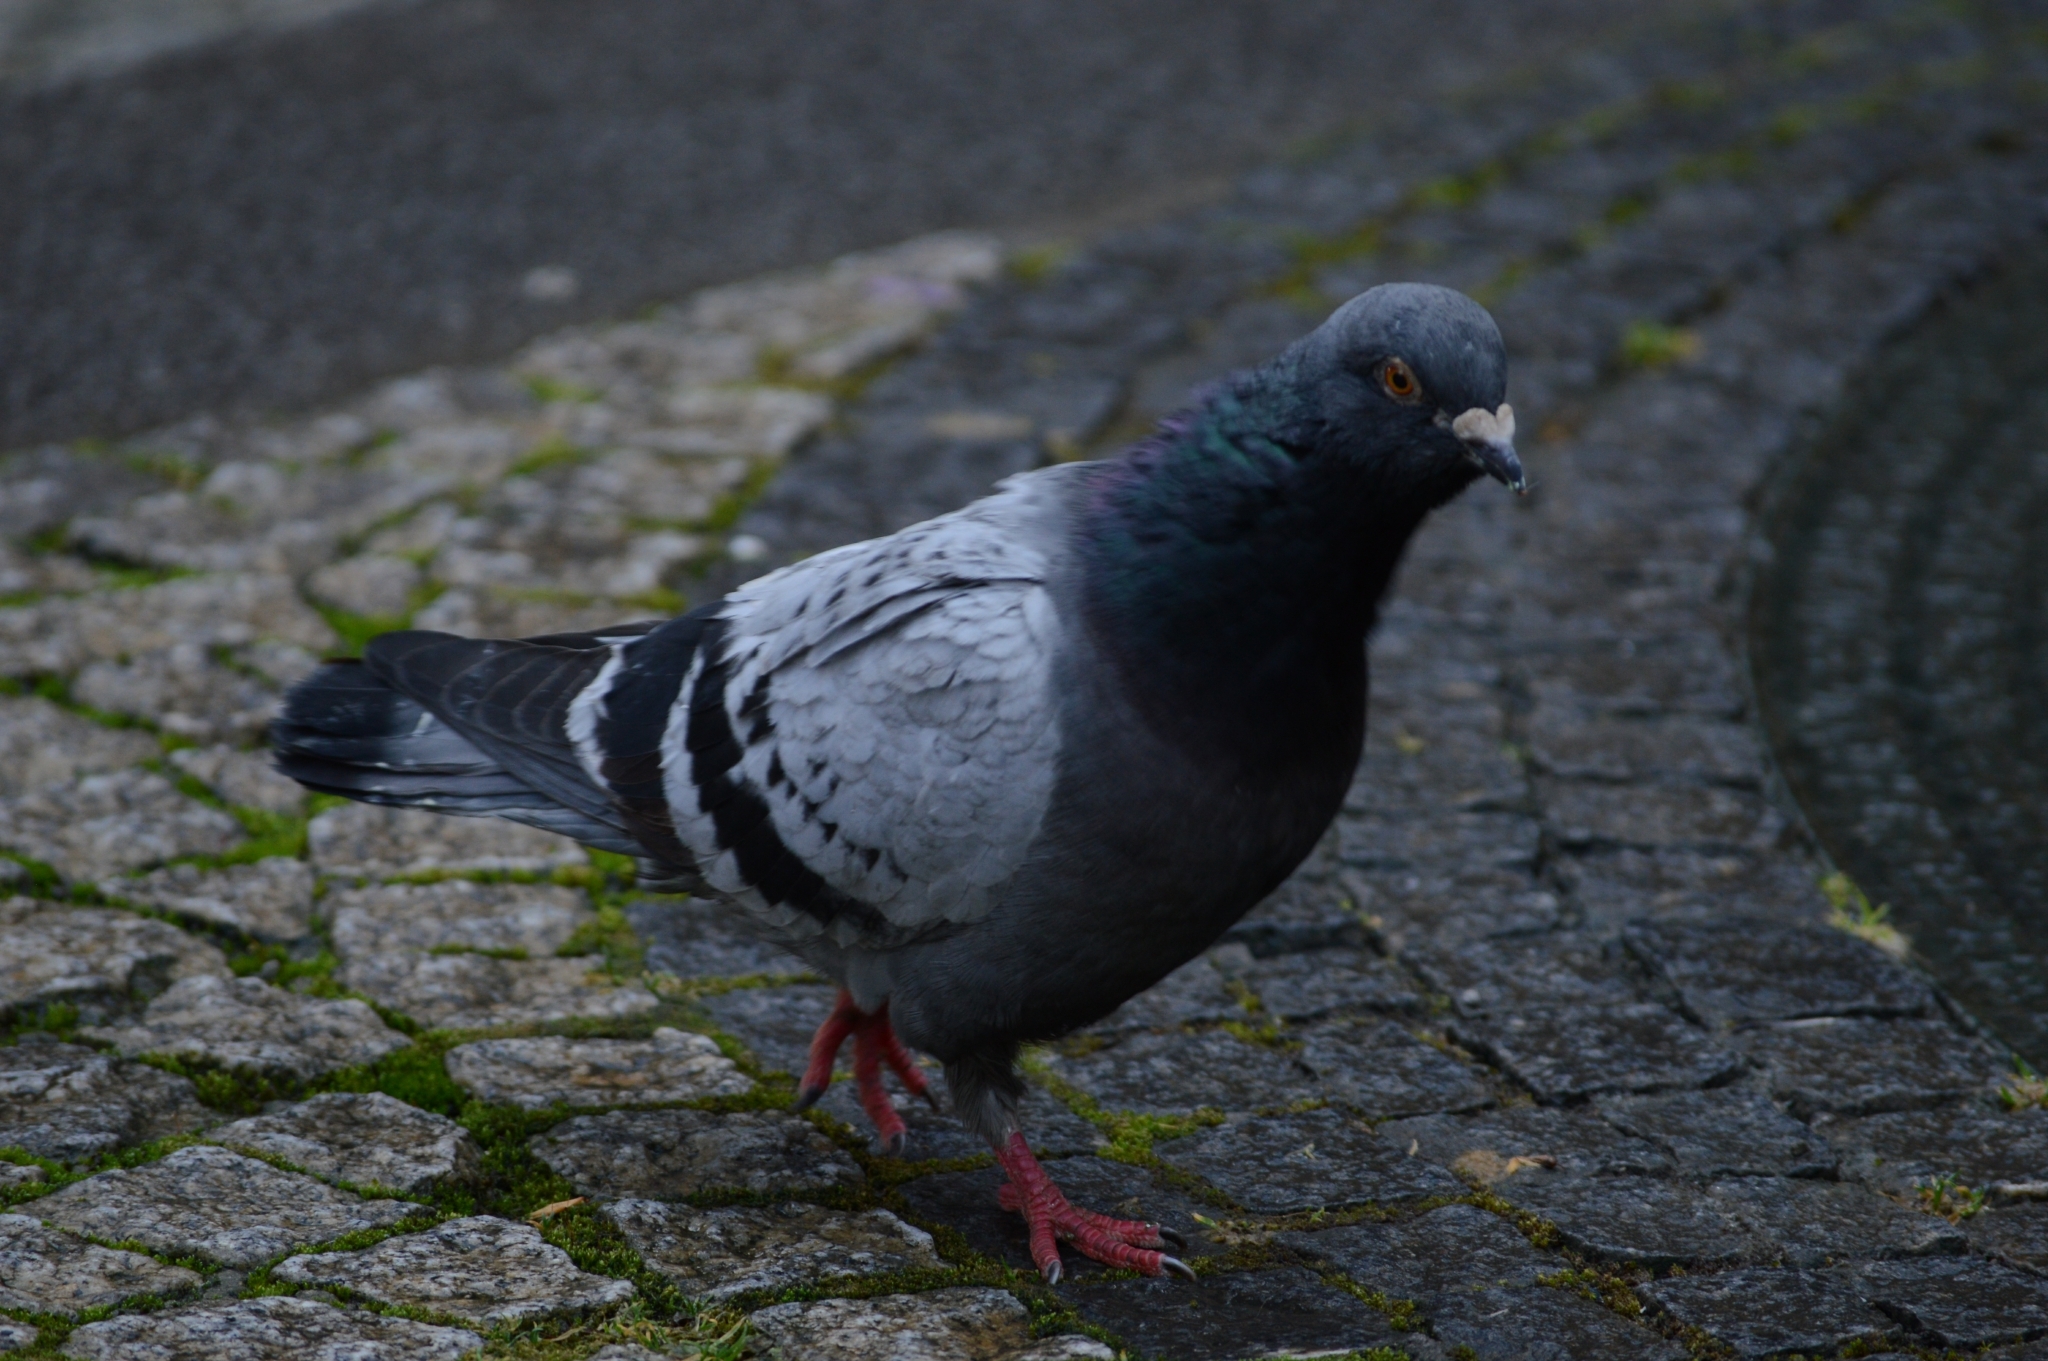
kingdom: Animalia
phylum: Chordata
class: Aves
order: Columbiformes
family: Columbidae
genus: Columba
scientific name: Columba livia
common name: Rock pigeon
